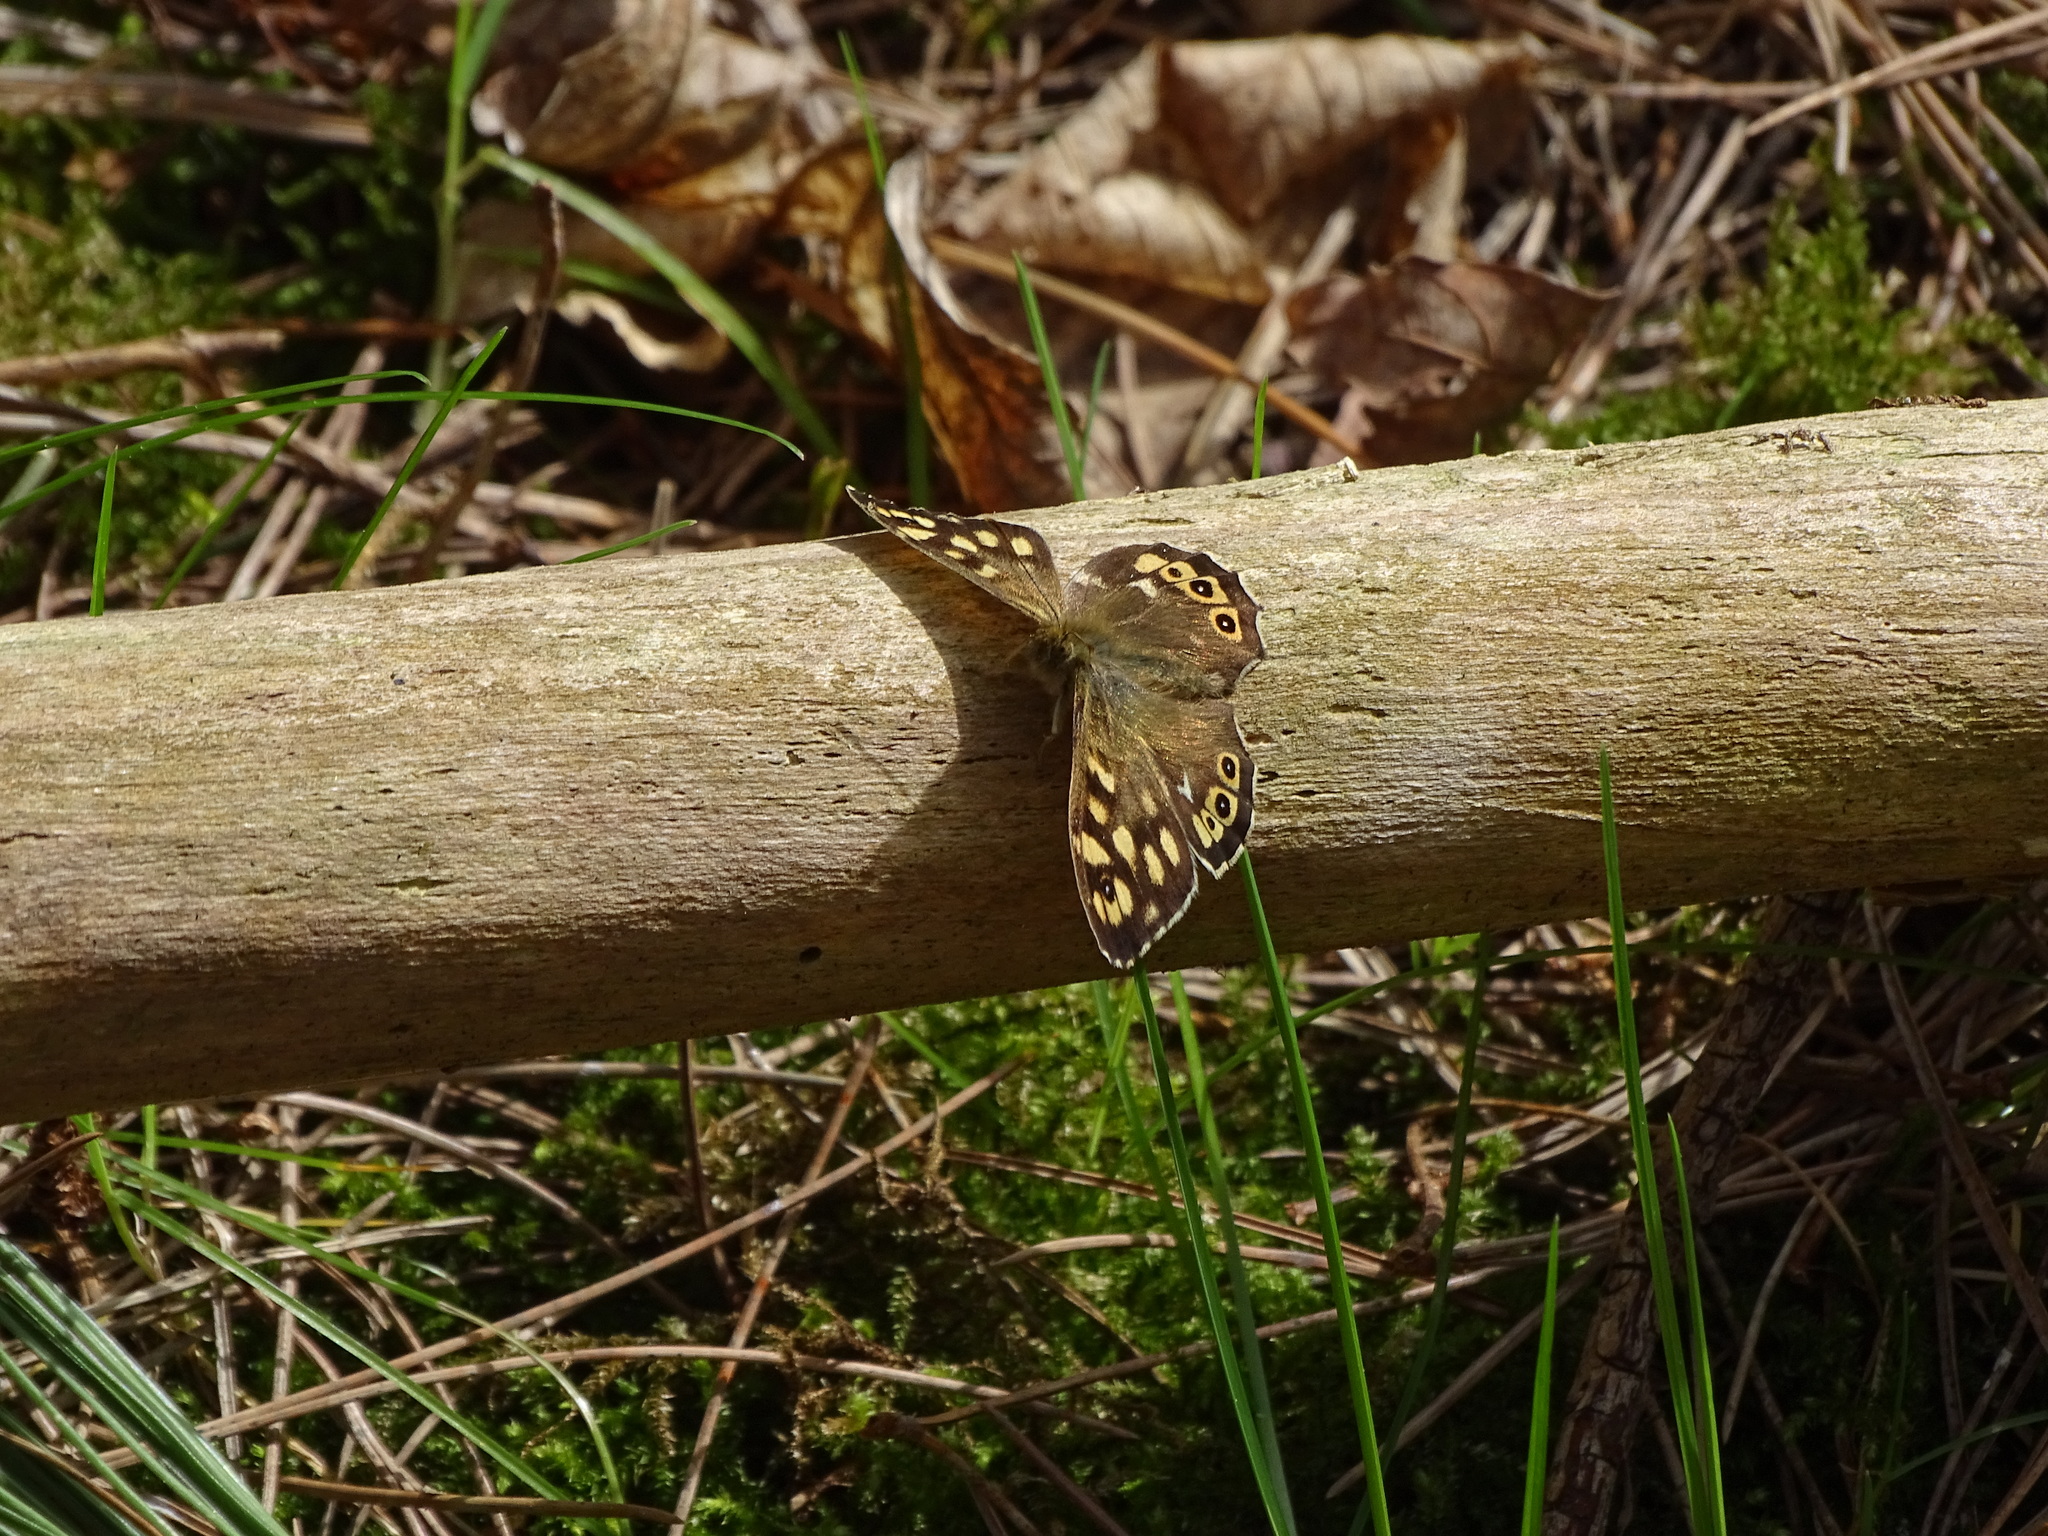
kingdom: Animalia
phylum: Arthropoda
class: Insecta
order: Lepidoptera
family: Nymphalidae
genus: Pararge
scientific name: Pararge aegeria
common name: Speckled wood
